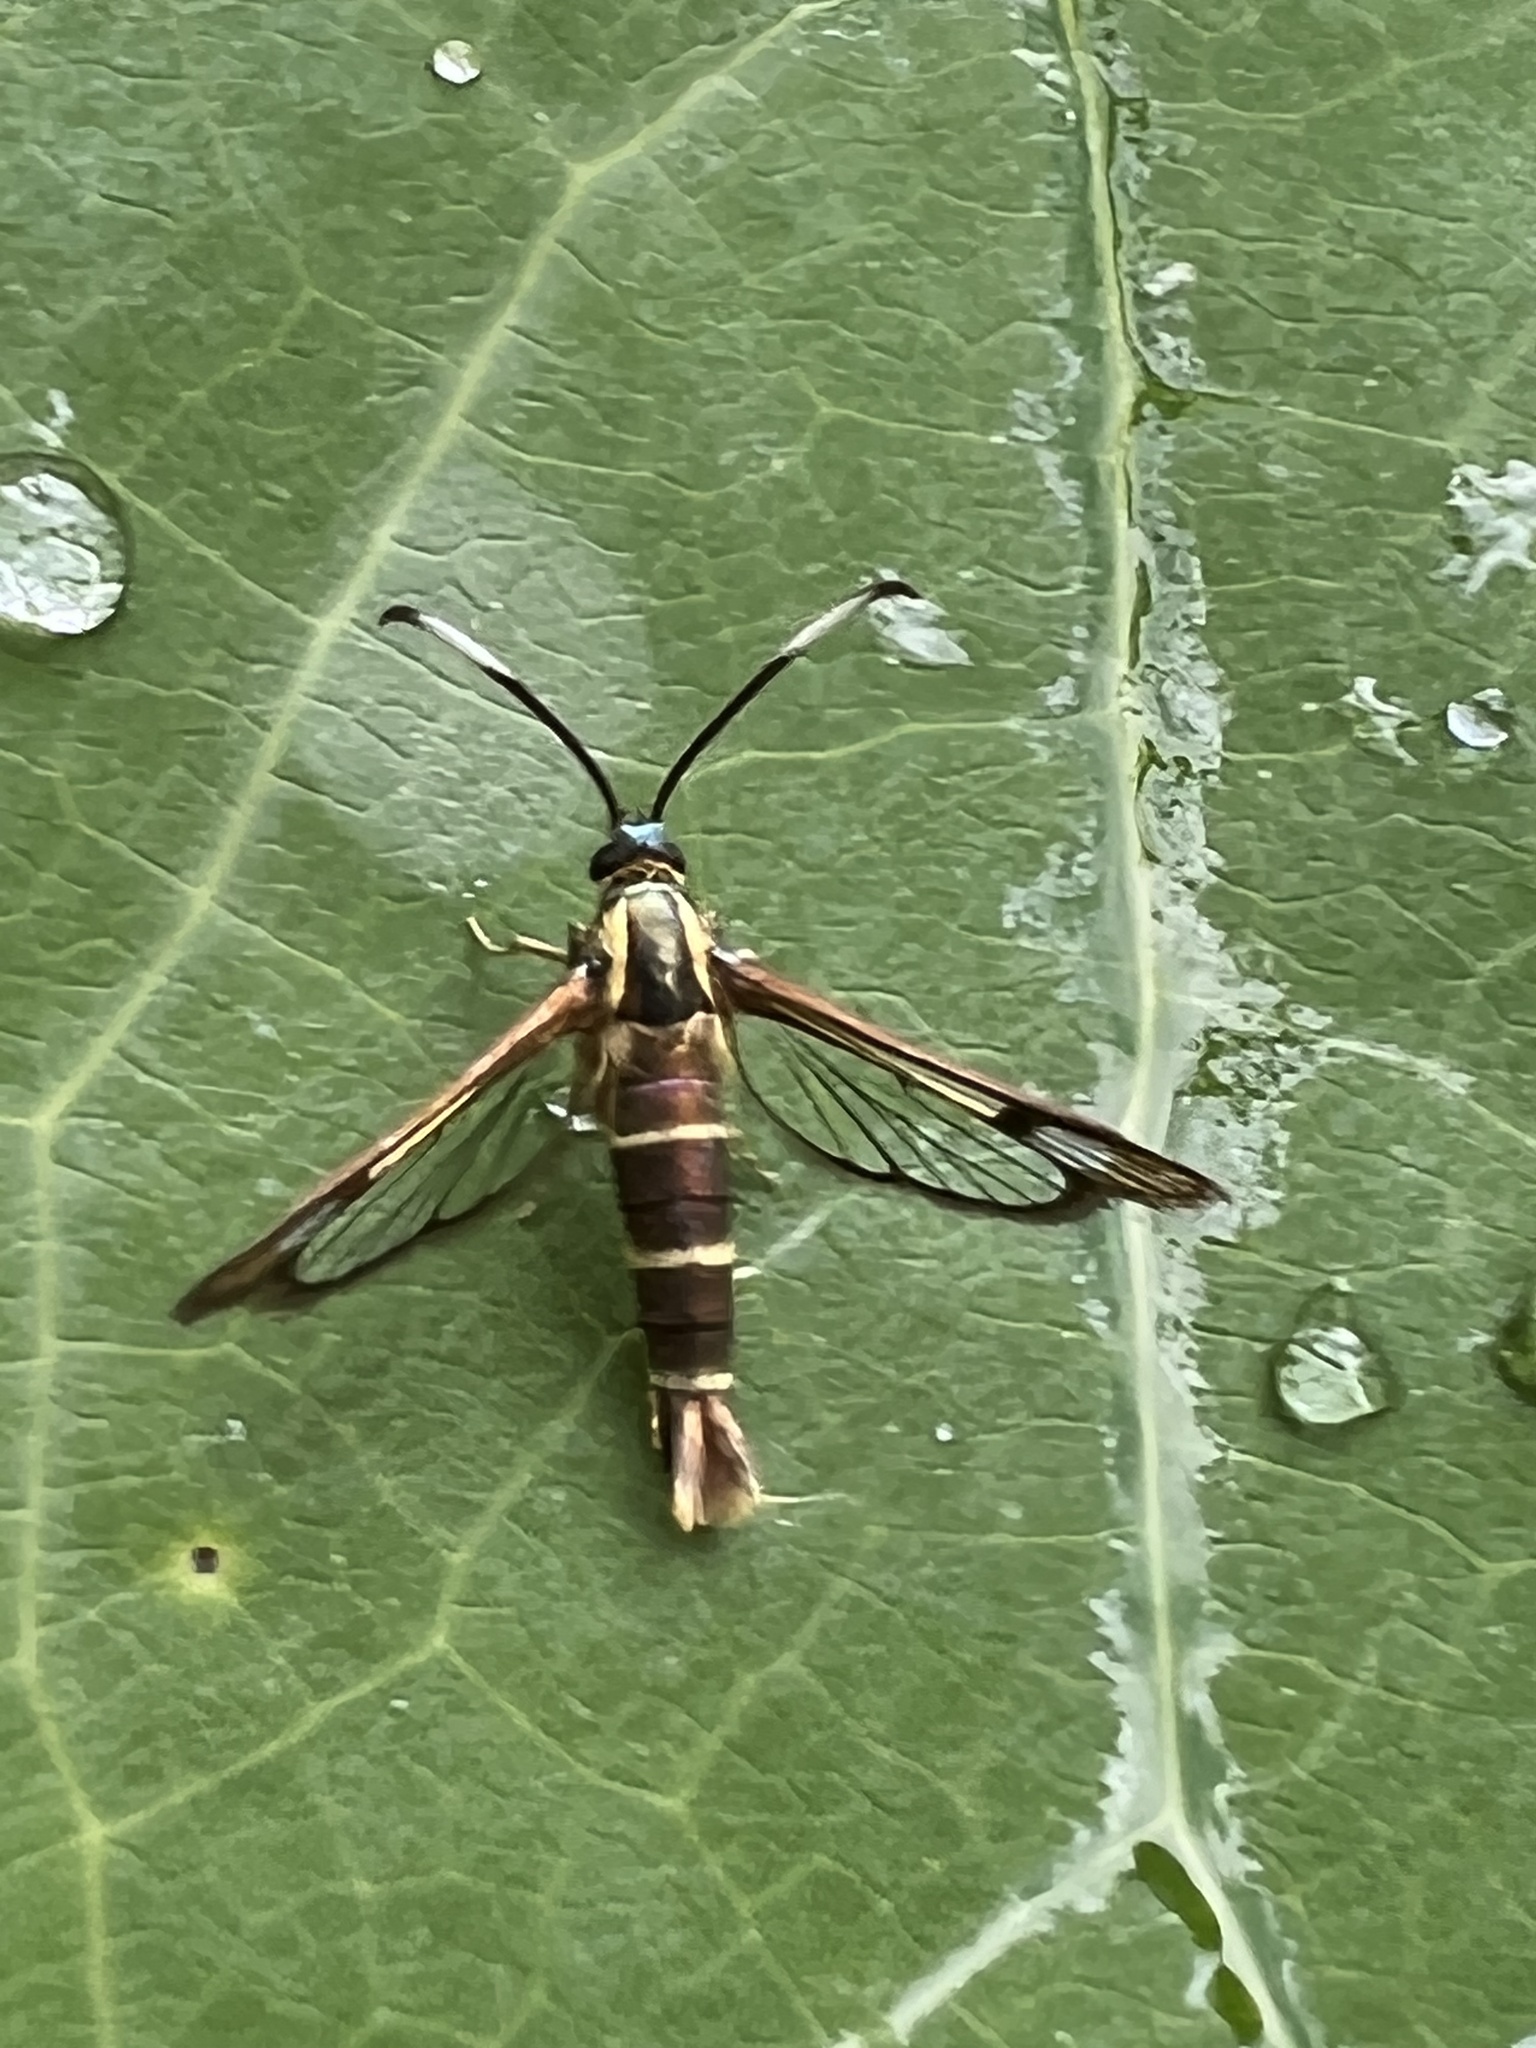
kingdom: Animalia
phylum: Arthropoda
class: Insecta
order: Lepidoptera
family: Sesiidae
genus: Carmenta
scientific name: Carmenta bassiformis
